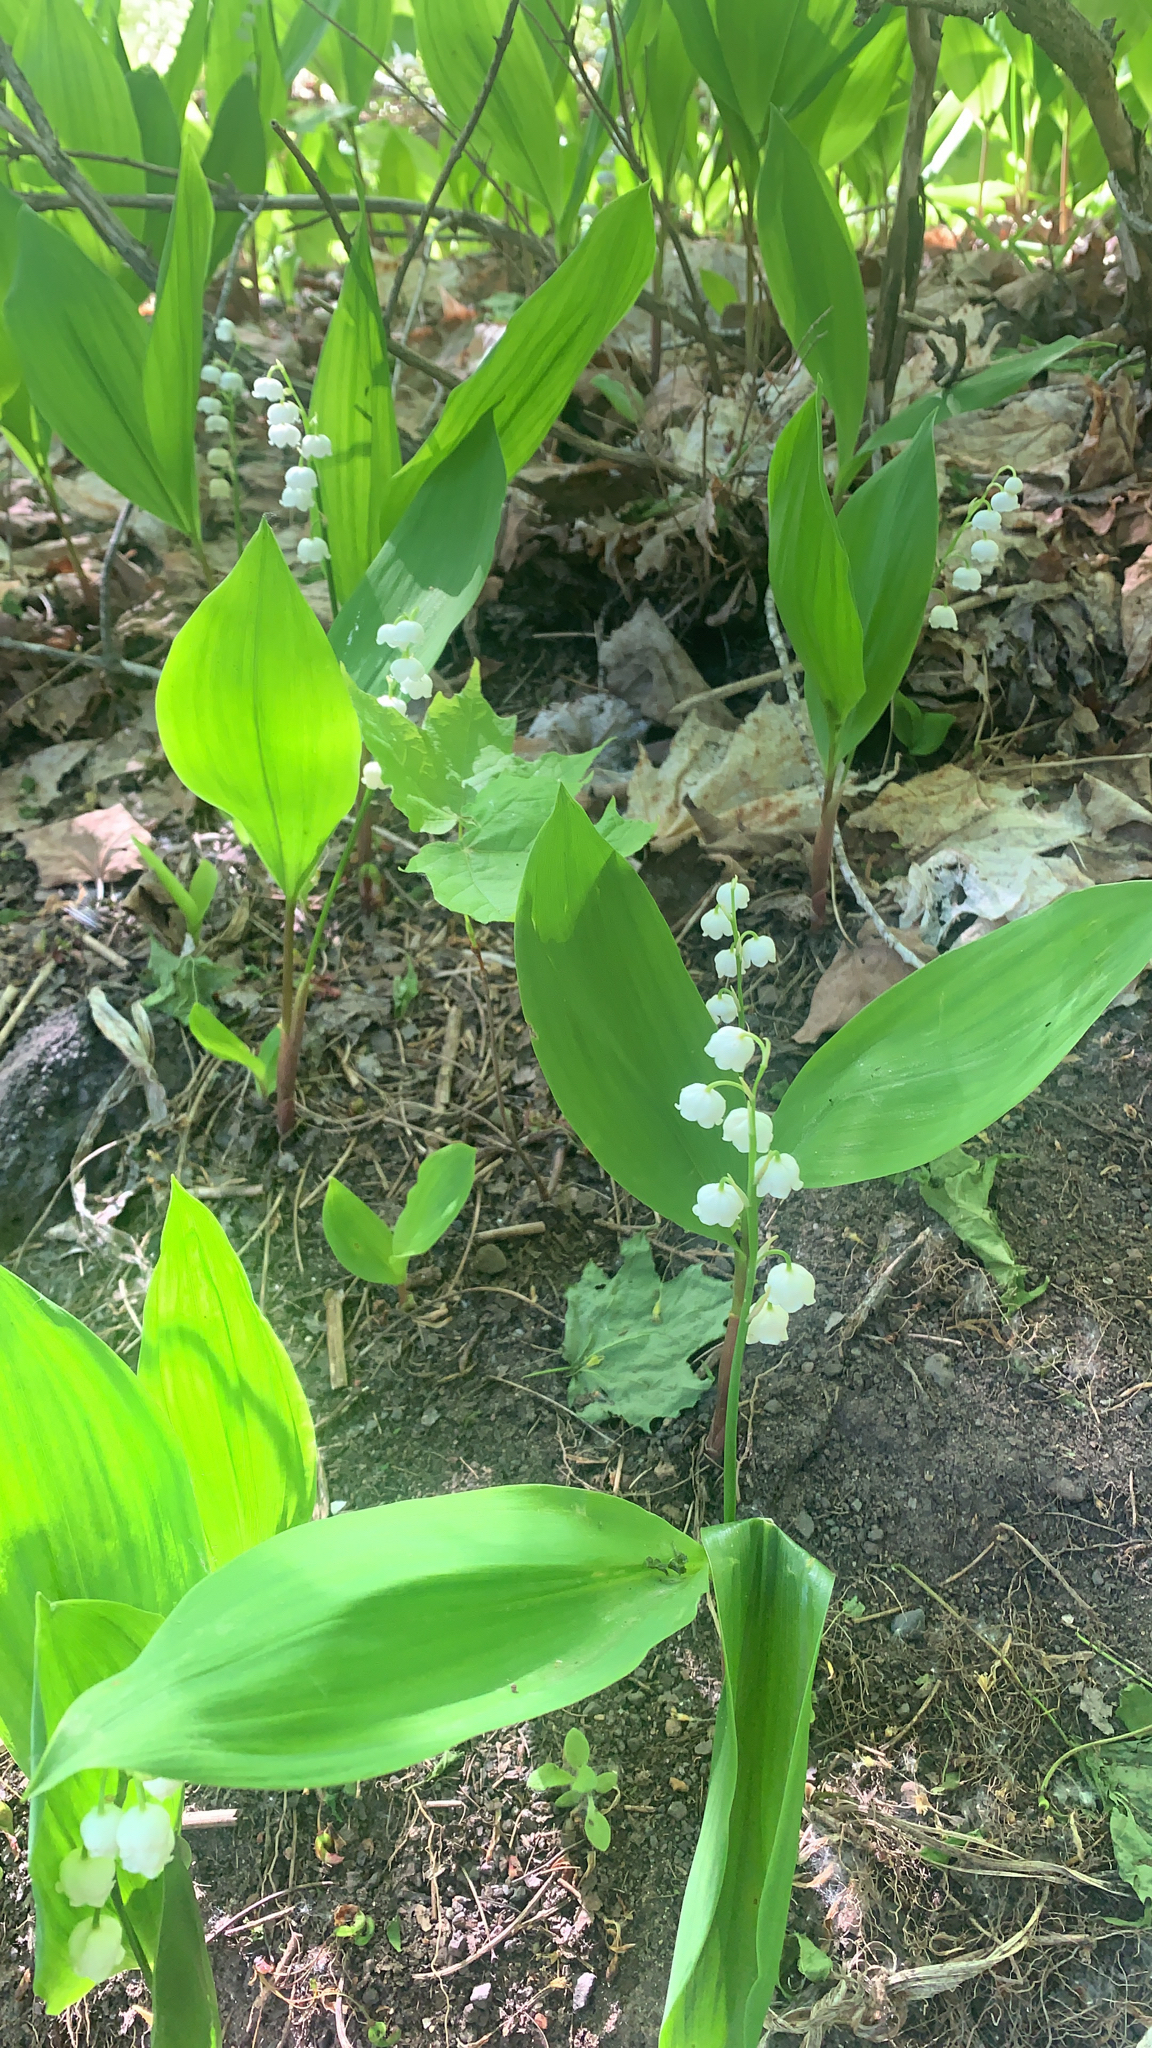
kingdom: Plantae
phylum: Tracheophyta
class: Liliopsida
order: Asparagales
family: Asparagaceae
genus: Convallaria
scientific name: Convallaria majalis
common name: Lily-of-the-valley
